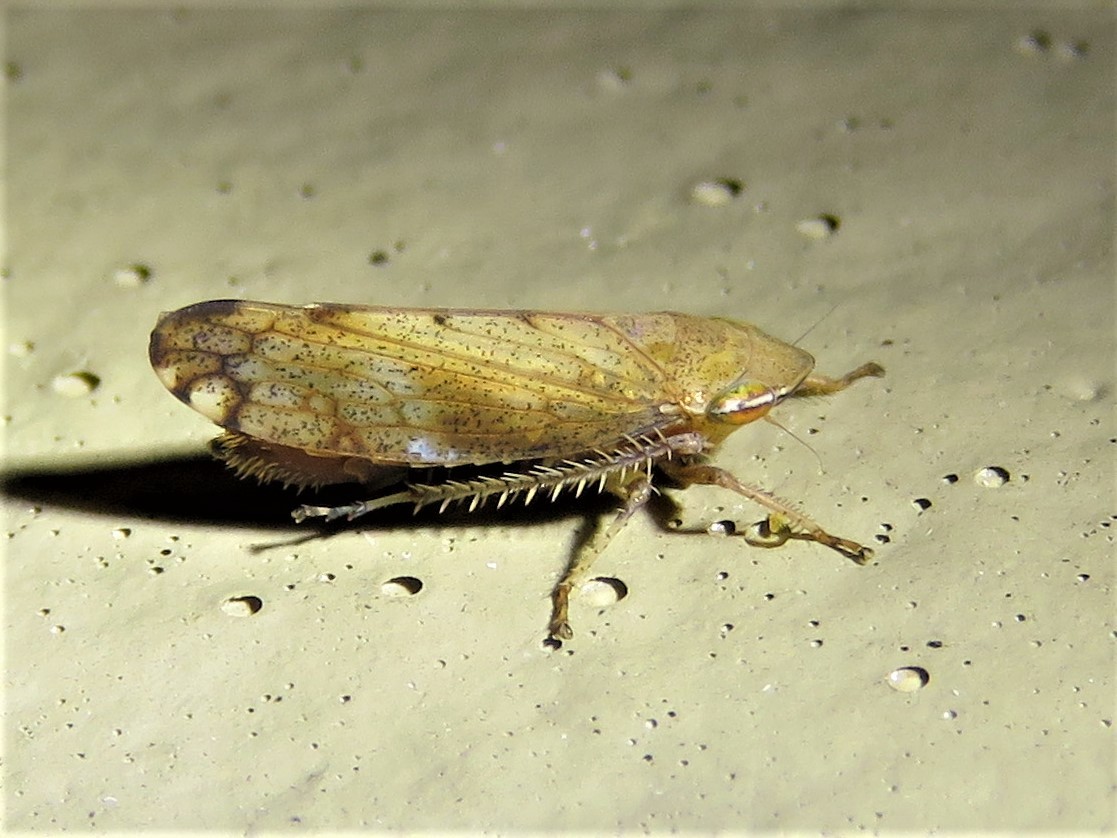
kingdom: Animalia
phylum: Arthropoda
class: Insecta
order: Hemiptera
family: Cicadellidae
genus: Fieberiella
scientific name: Fieberiella florii
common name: Flor’s leafhopper
